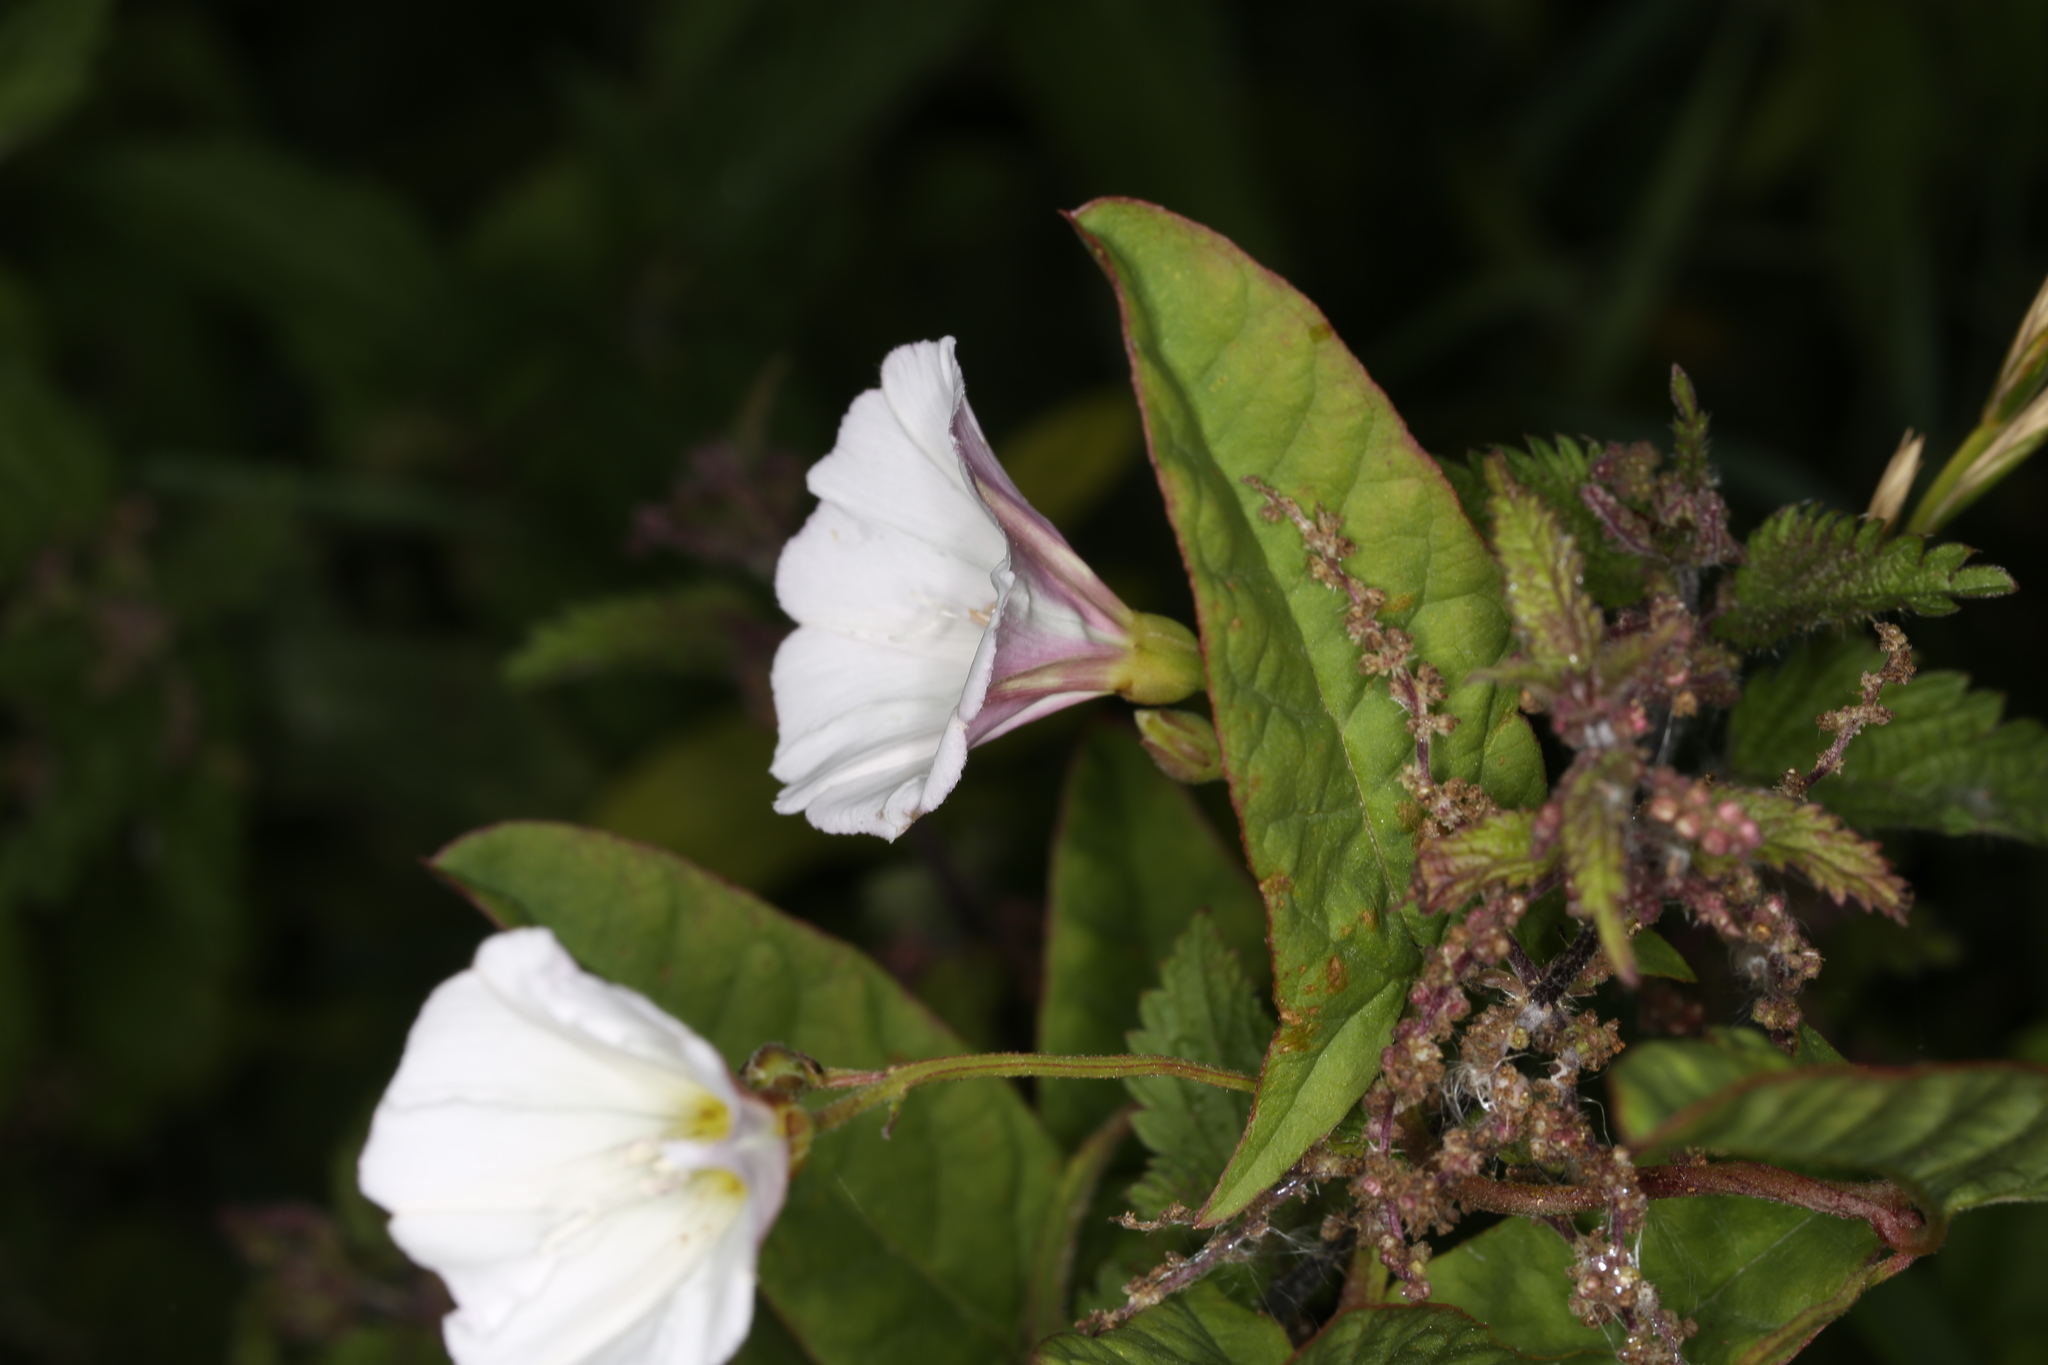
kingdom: Plantae
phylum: Tracheophyta
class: Magnoliopsida
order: Solanales
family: Convolvulaceae
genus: Convolvulus
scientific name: Convolvulus arvensis
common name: Field bindweed
